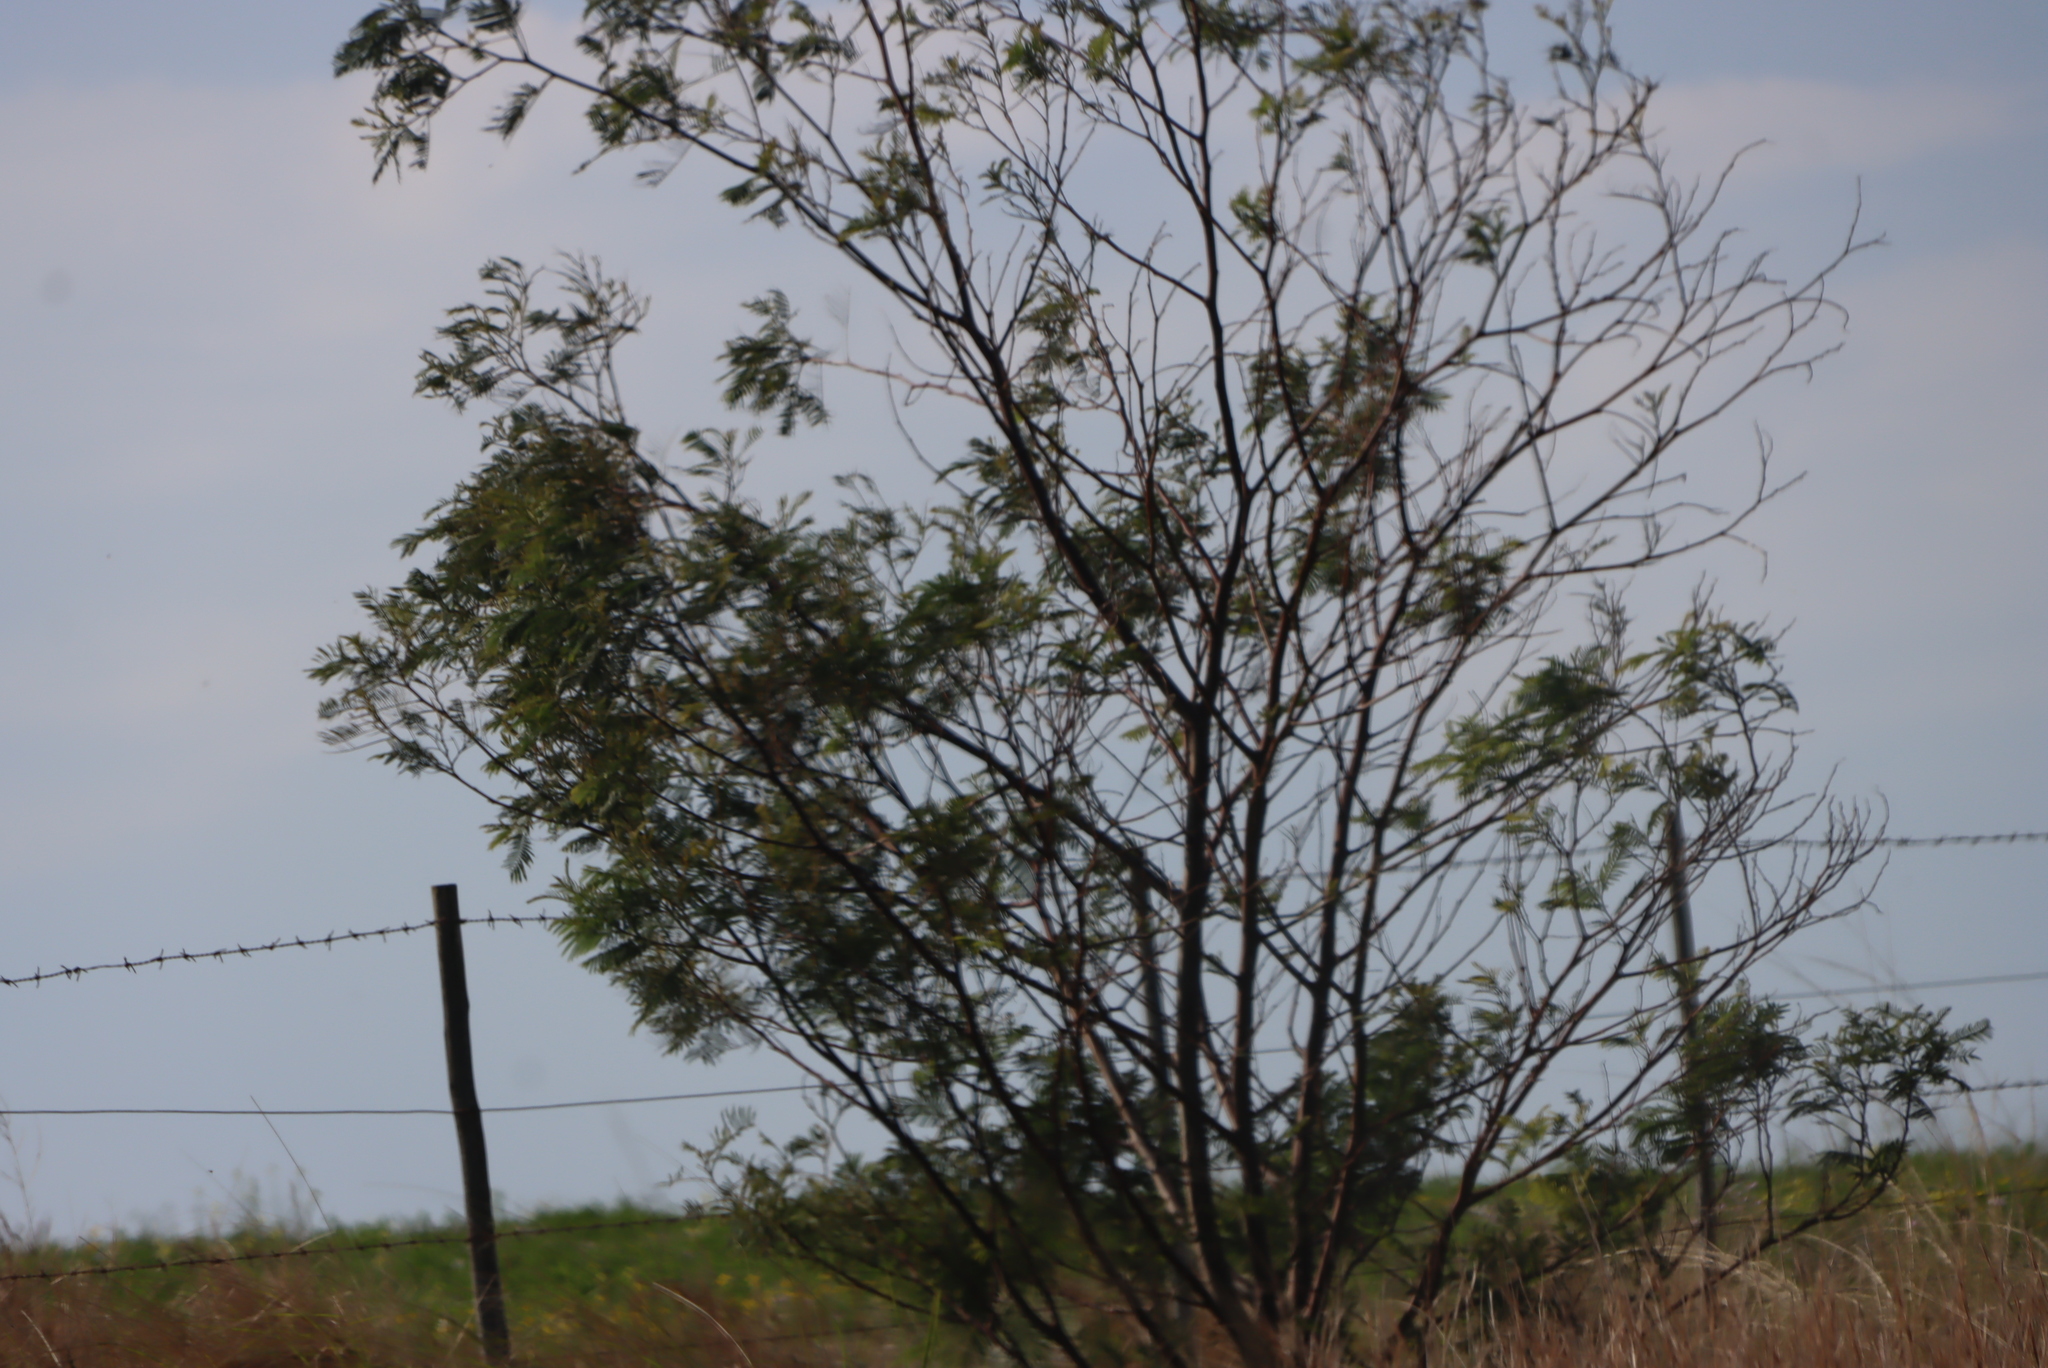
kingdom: Plantae
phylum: Tracheophyta
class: Magnoliopsida
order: Fabales
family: Fabaceae
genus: Acacia
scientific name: Acacia mearnsii
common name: Black wattle
